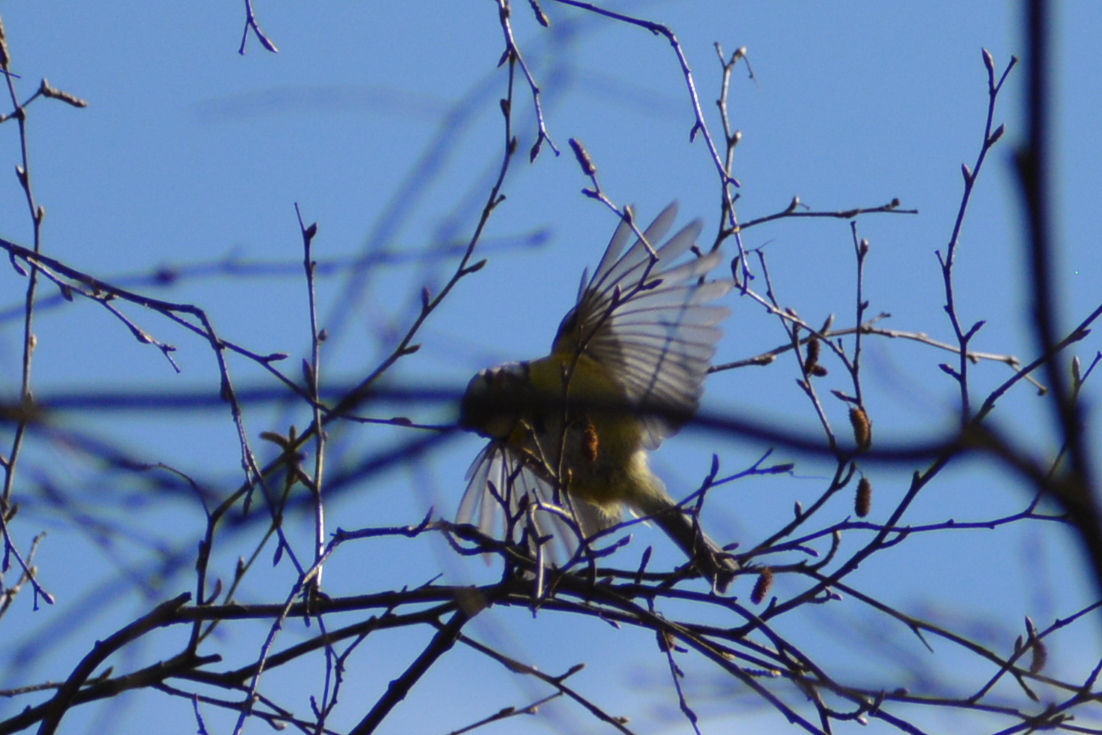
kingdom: Animalia
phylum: Chordata
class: Aves
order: Passeriformes
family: Paridae
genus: Cyanistes
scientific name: Cyanistes caeruleus
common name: Eurasian blue tit
